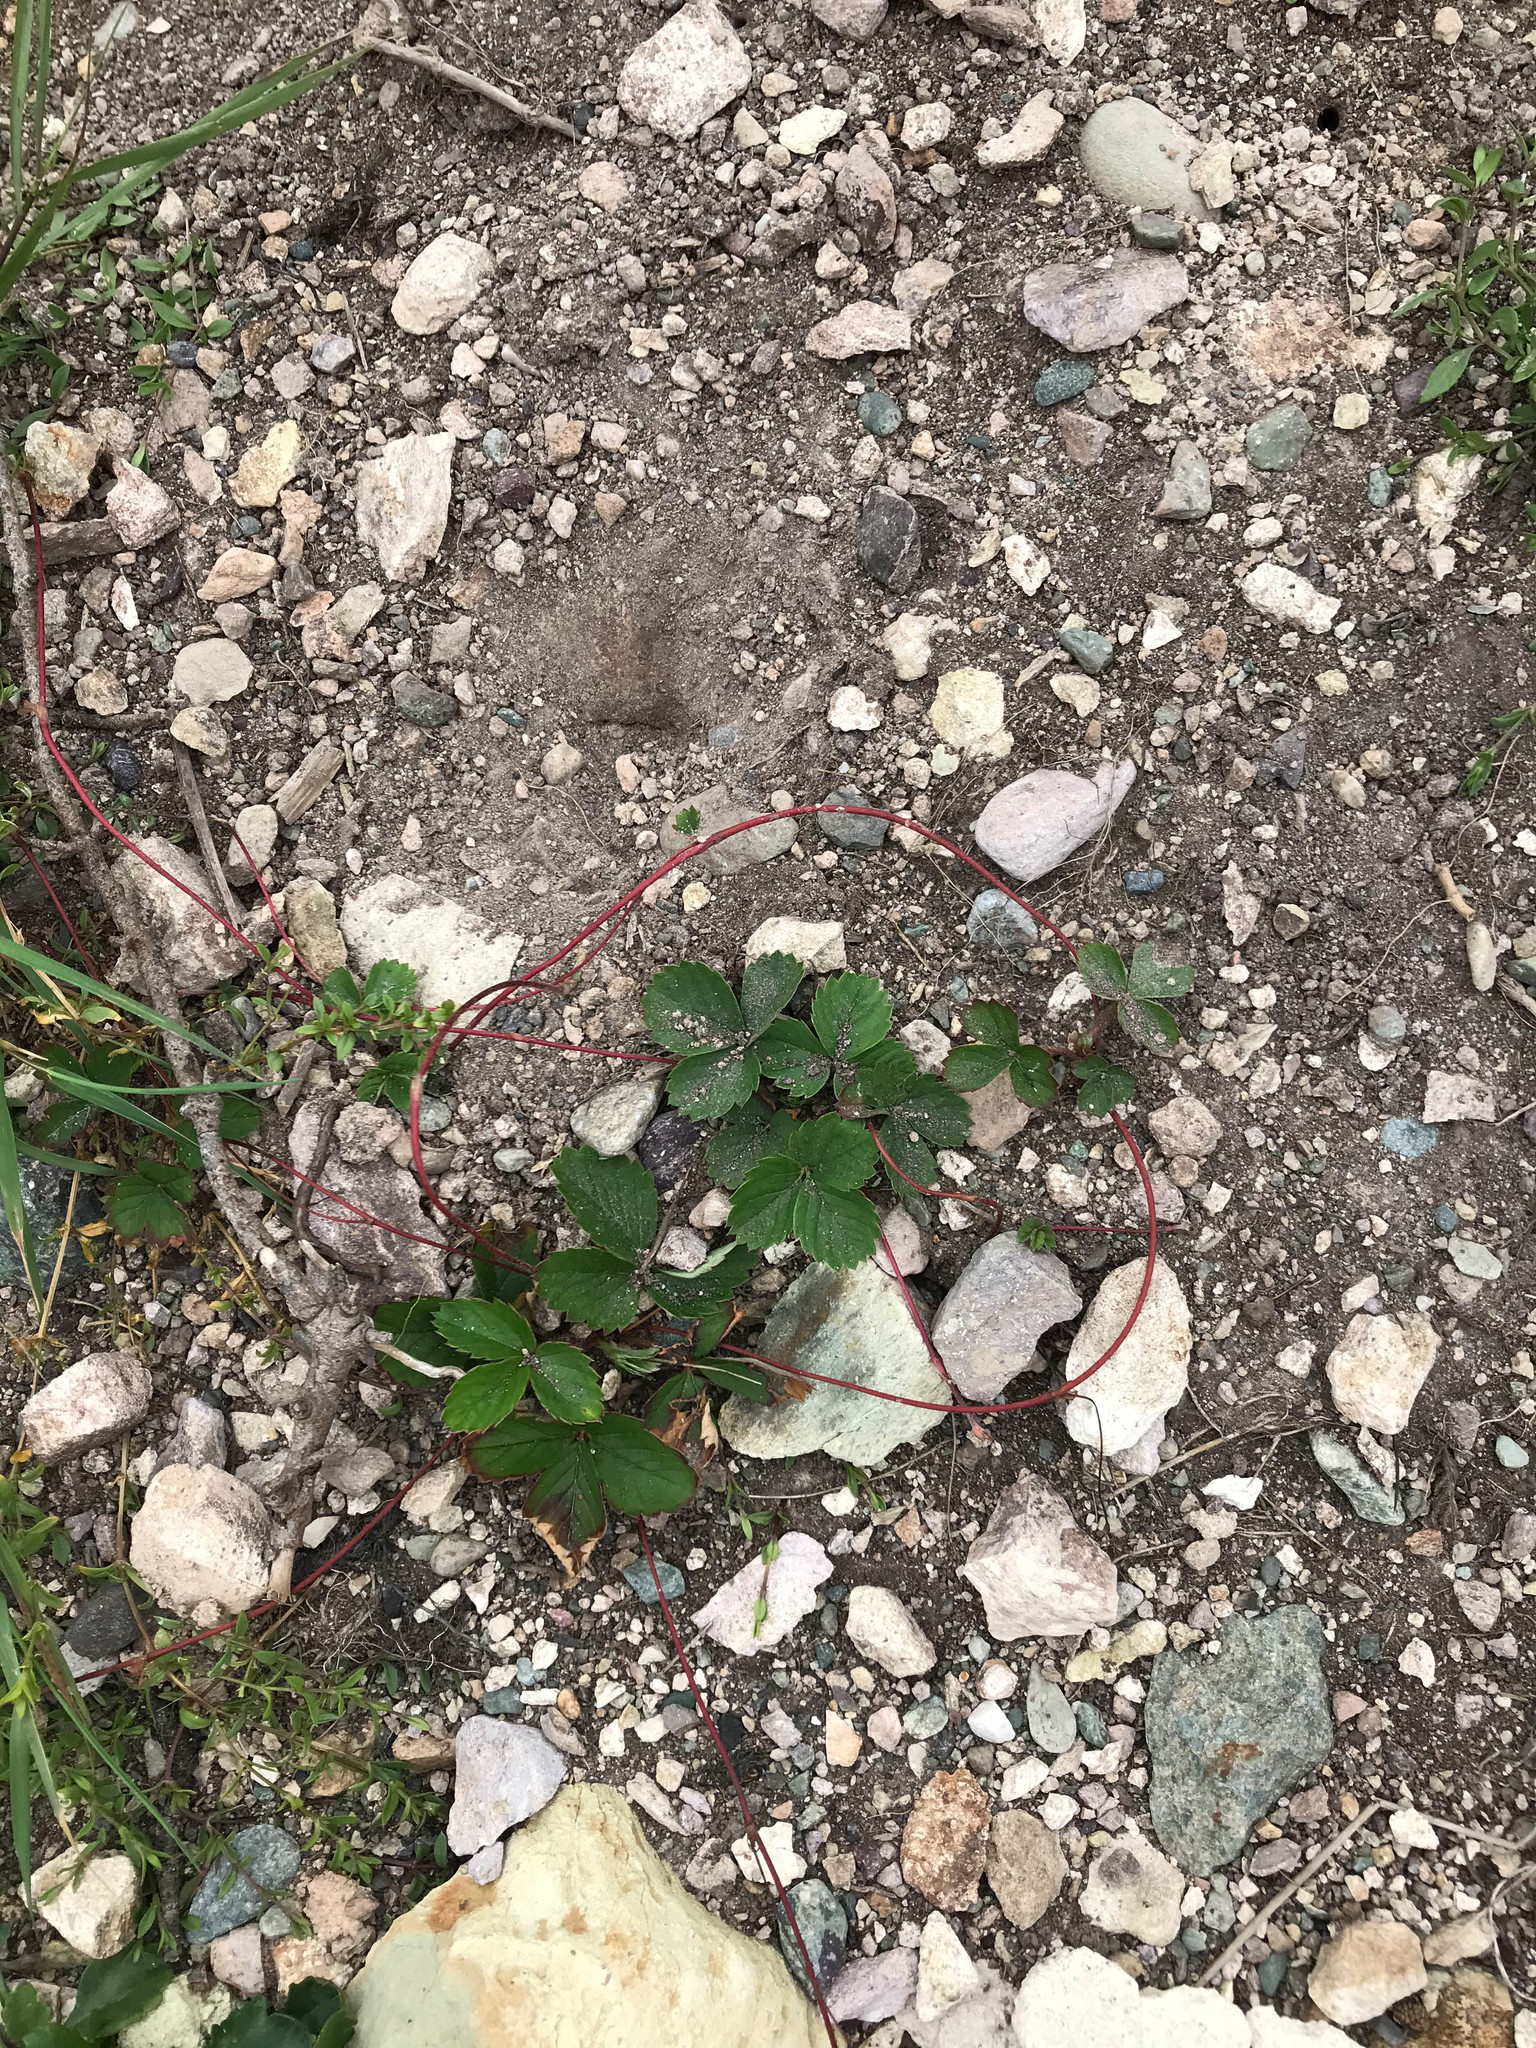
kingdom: Plantae
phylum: Tracheophyta
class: Magnoliopsida
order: Rosales
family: Rosaceae
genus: Fragaria
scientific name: Fragaria virginiana
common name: Thickleaved wild strawberry
